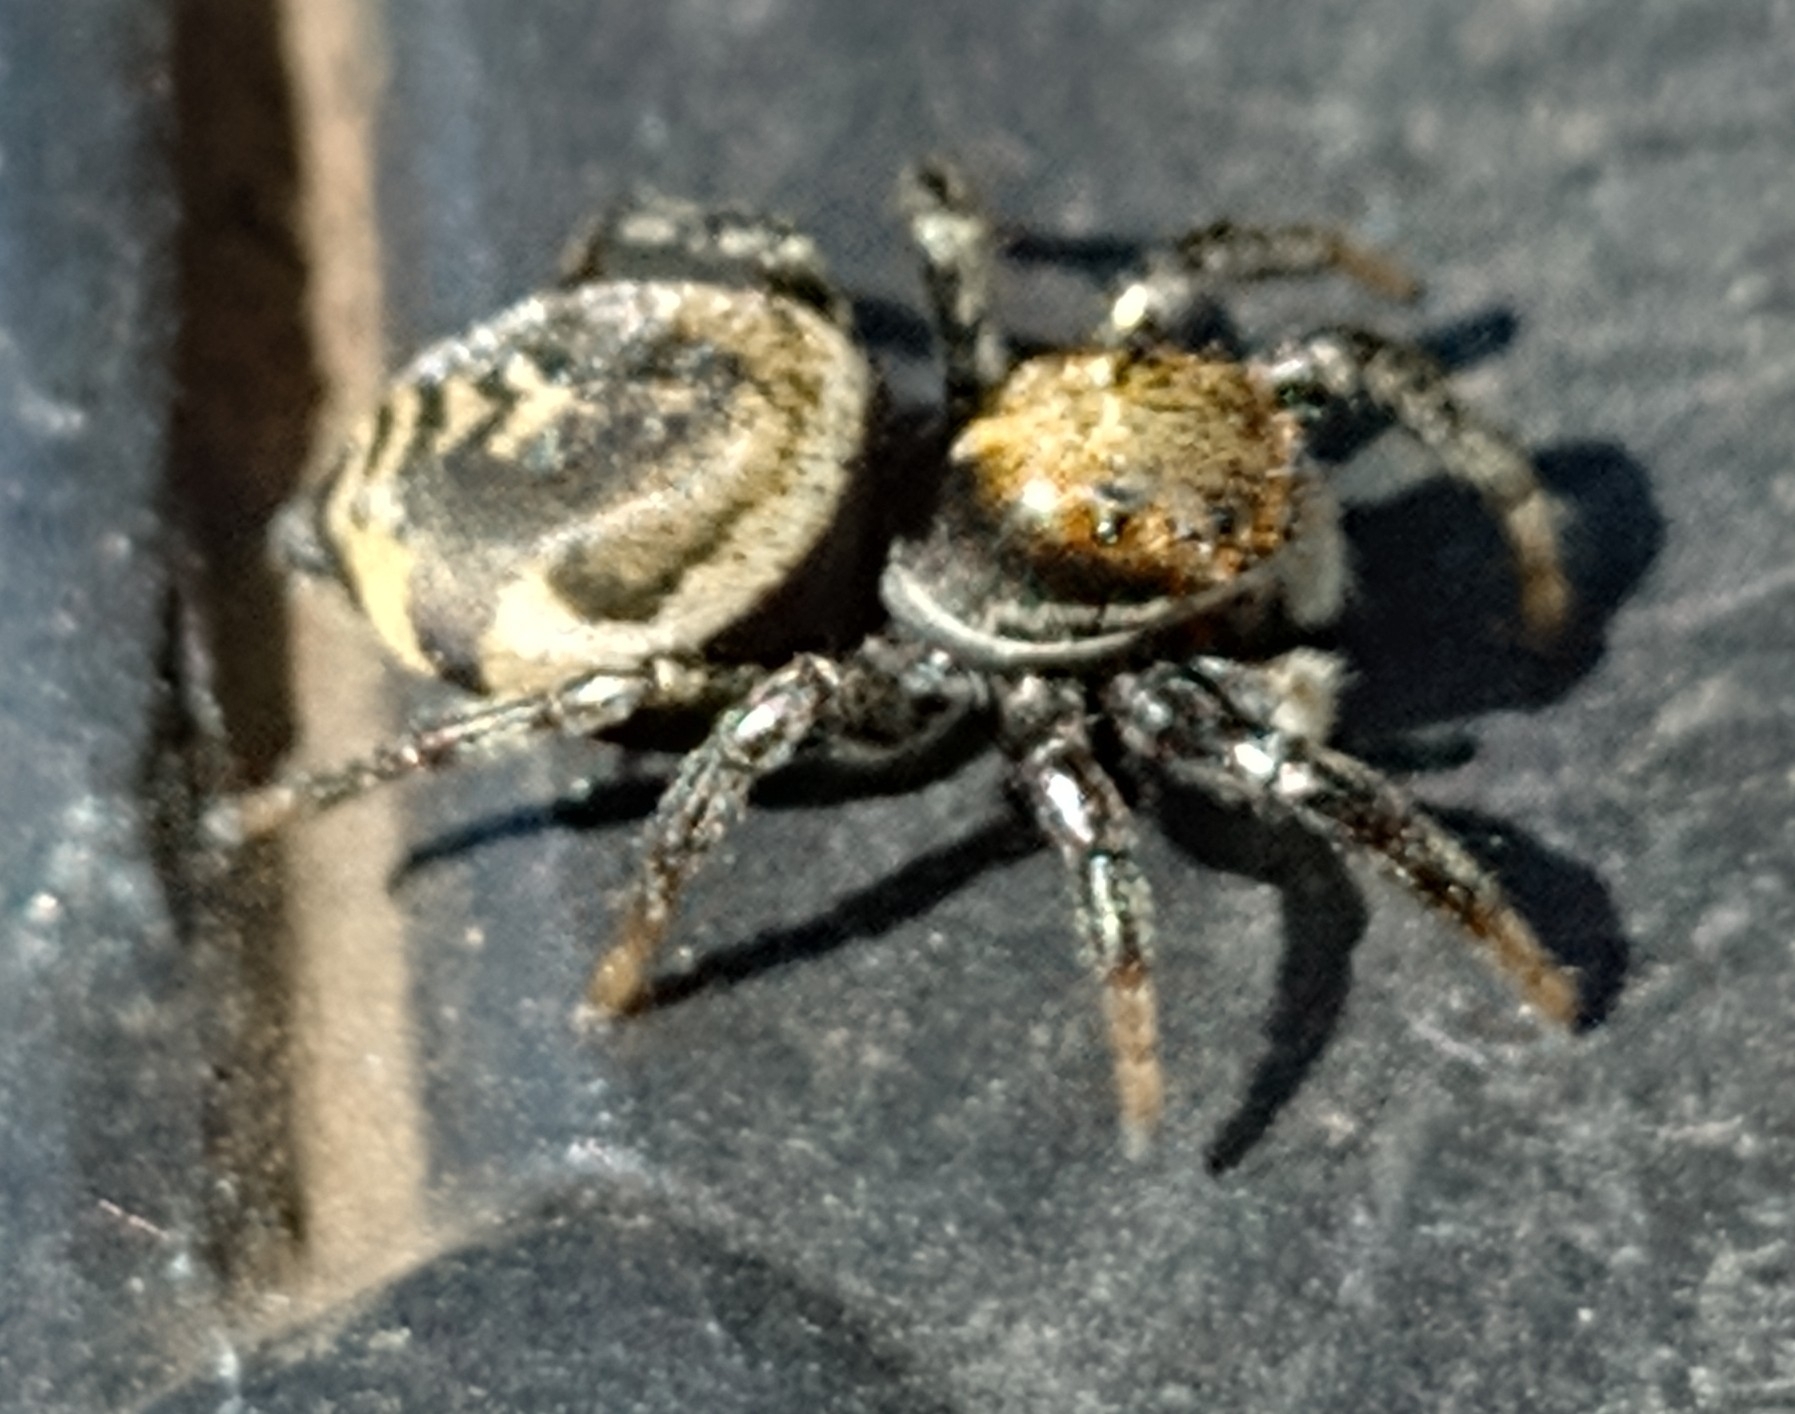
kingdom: Animalia
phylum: Arthropoda
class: Arachnida
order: Araneae
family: Salticidae
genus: Phiale
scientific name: Phiale roburifoliata
